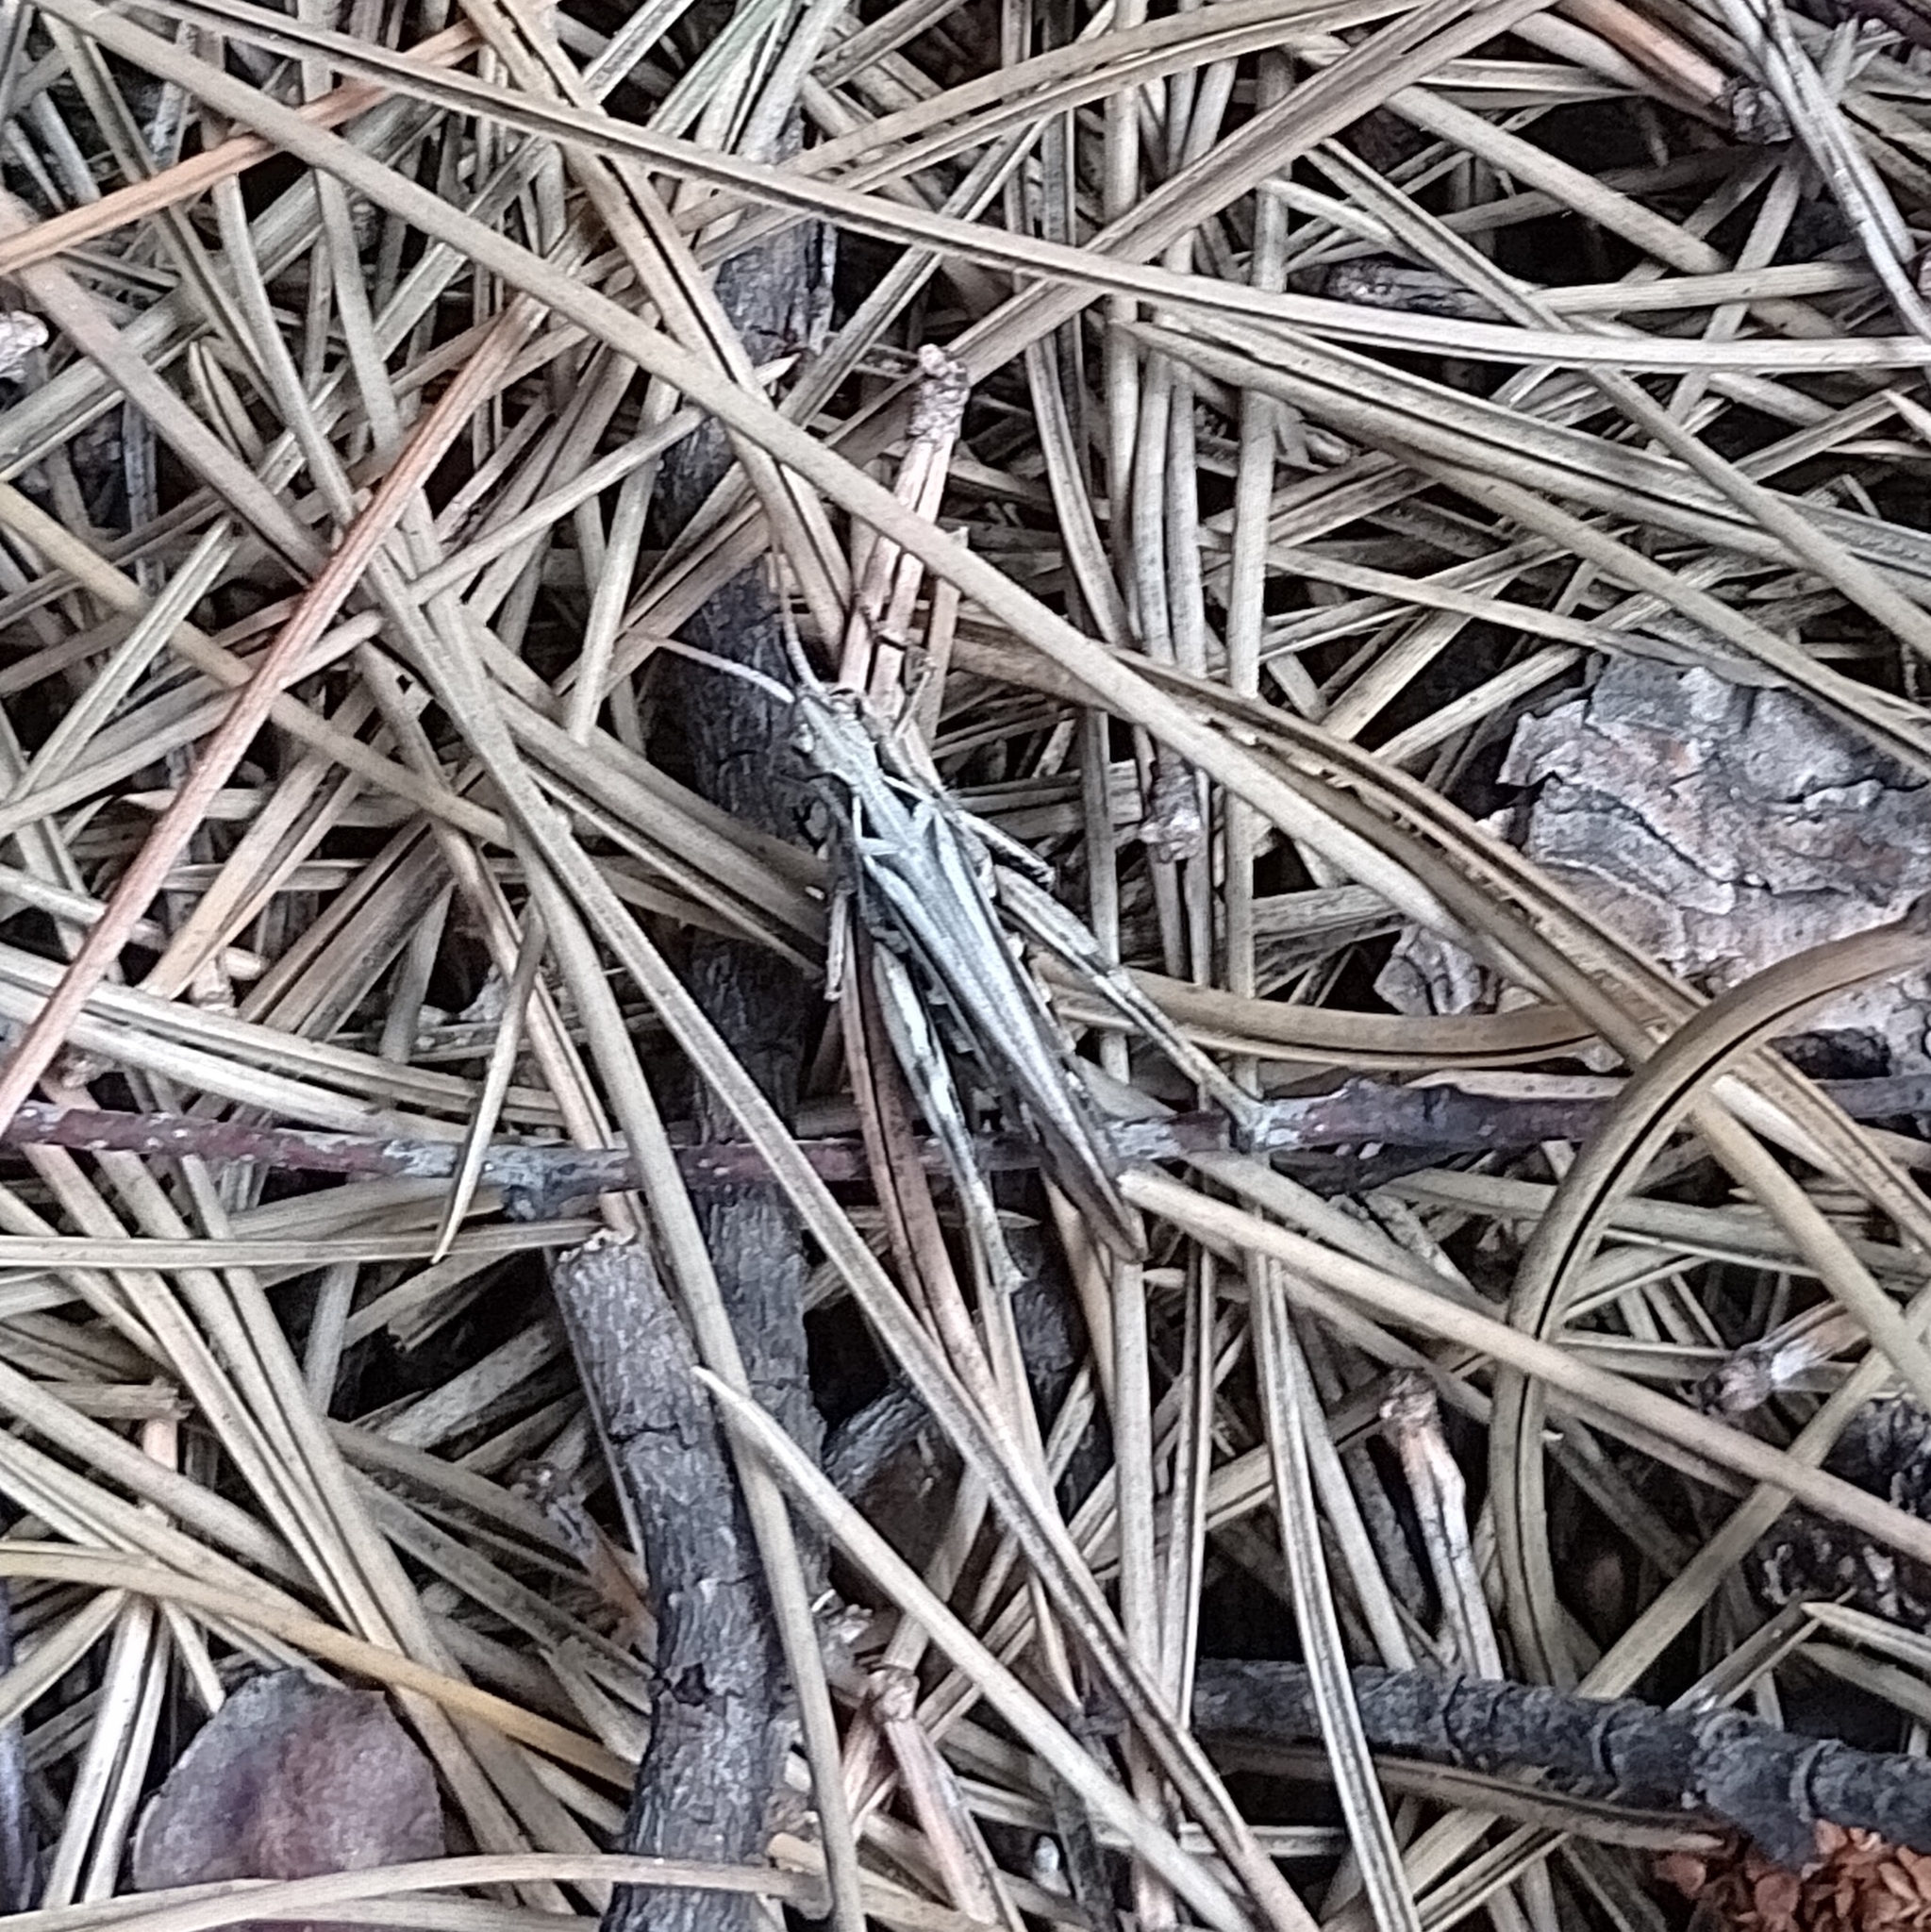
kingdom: Animalia
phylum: Arthropoda
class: Insecta
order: Orthoptera
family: Acrididae
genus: Chorthippus
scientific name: Chorthippus brunneus
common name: Field grasshopper
